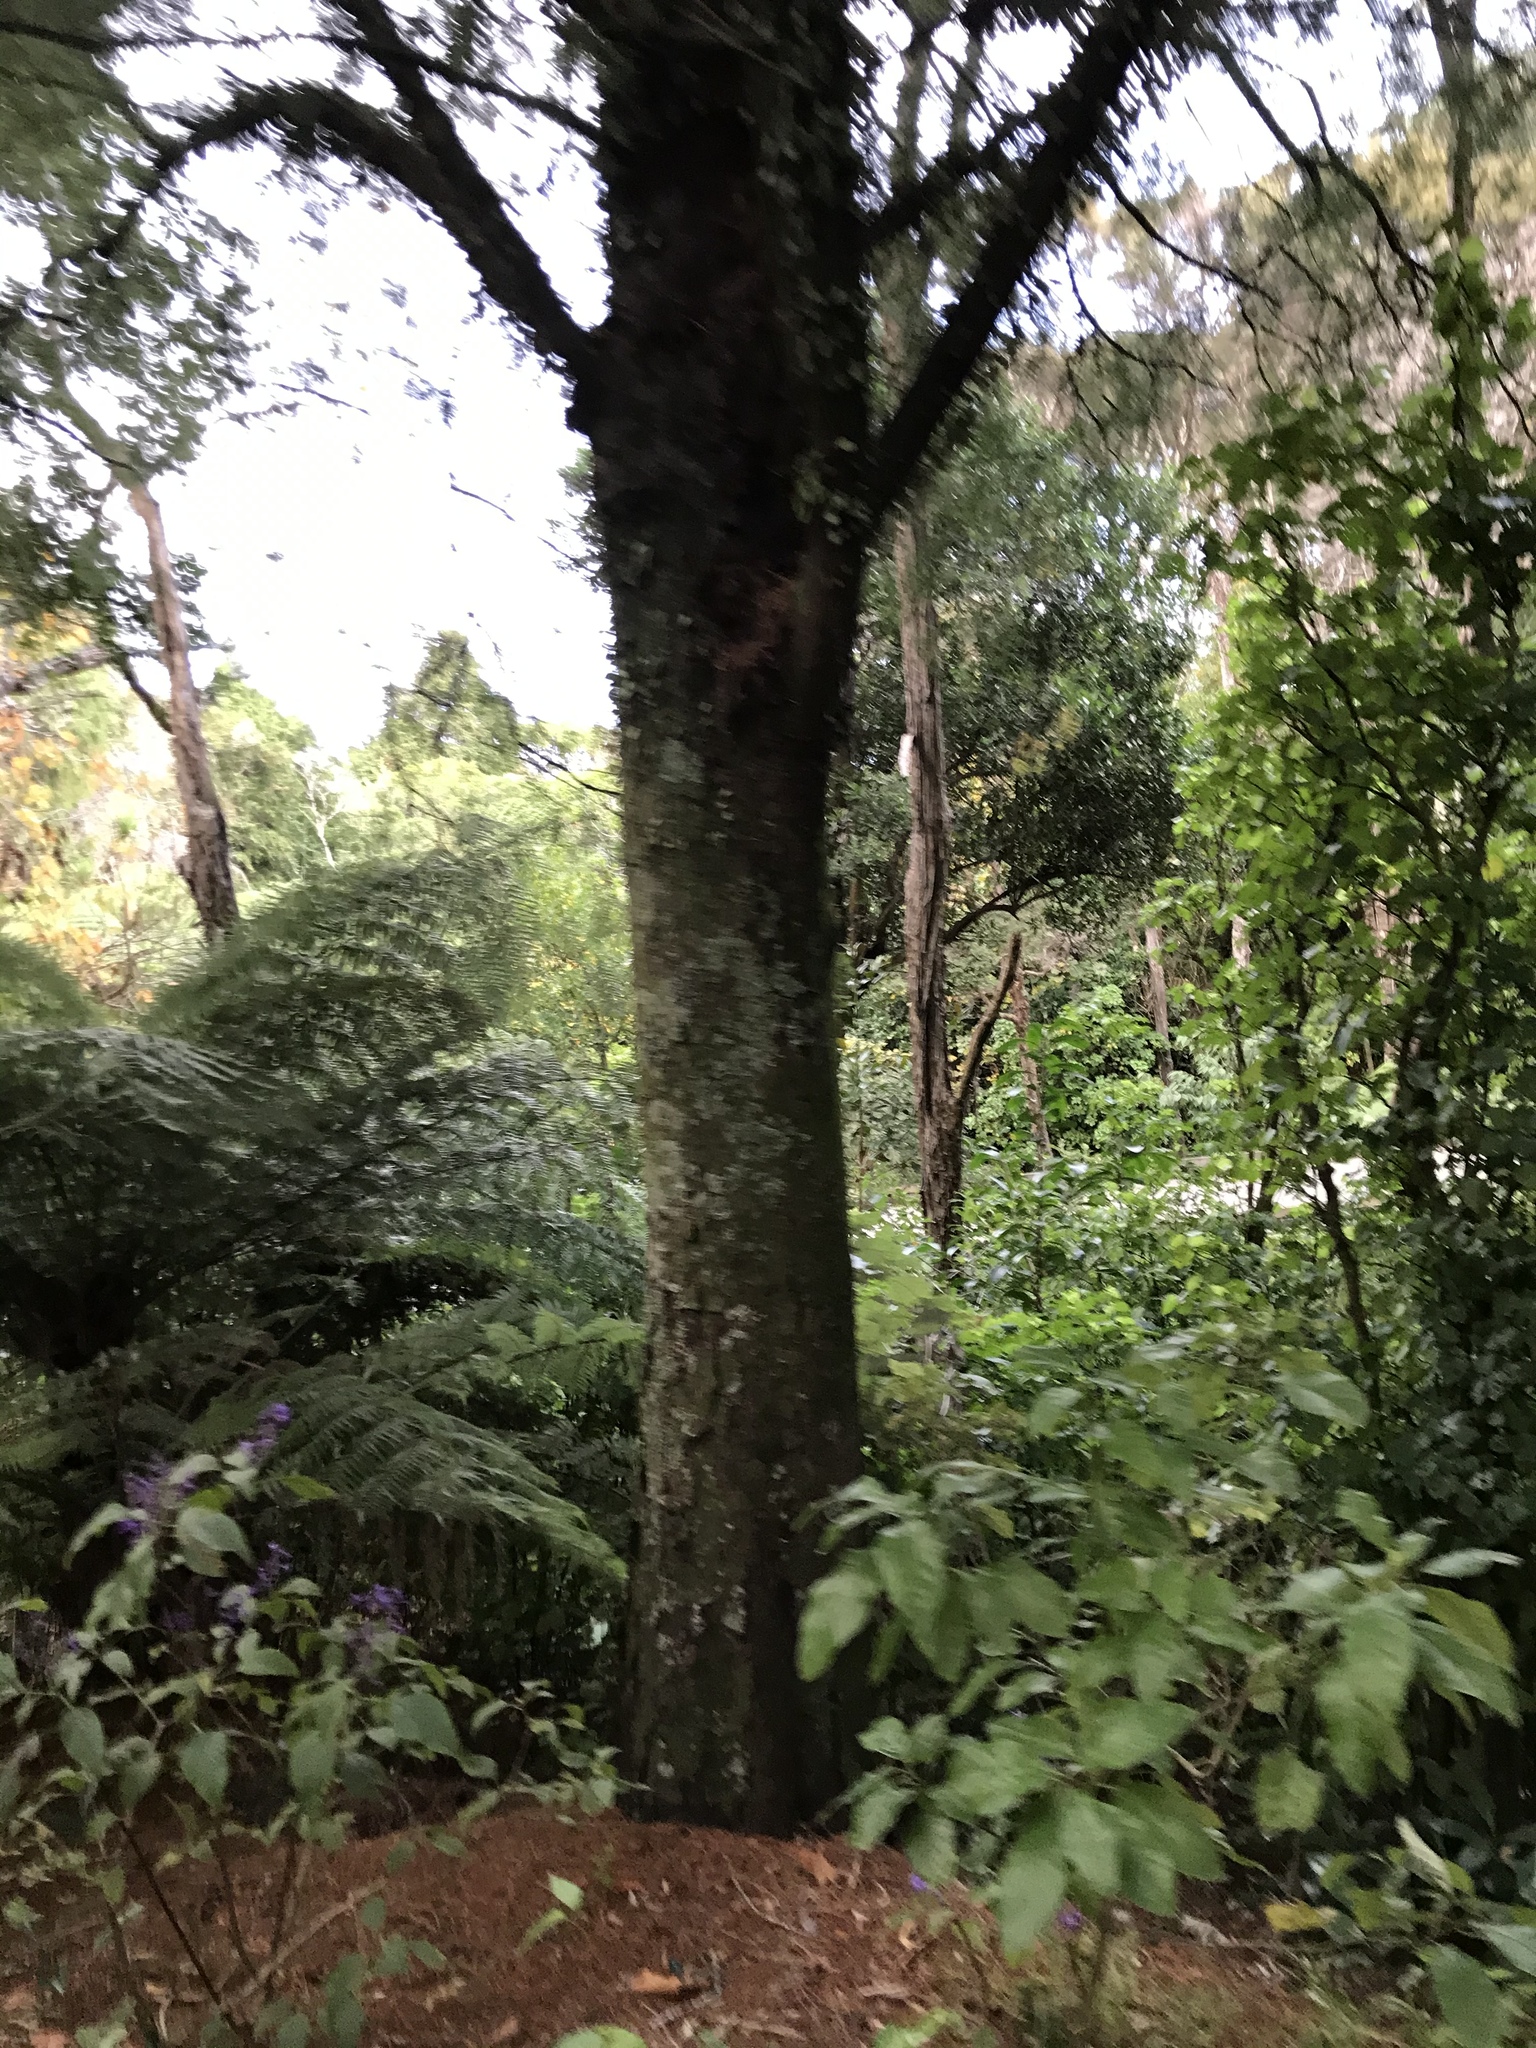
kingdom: Plantae
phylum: Tracheophyta
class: Pinopsida
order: Pinales
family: Podocarpaceae
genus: Dacrycarpus
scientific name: Dacrycarpus dacrydioides
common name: White pine
